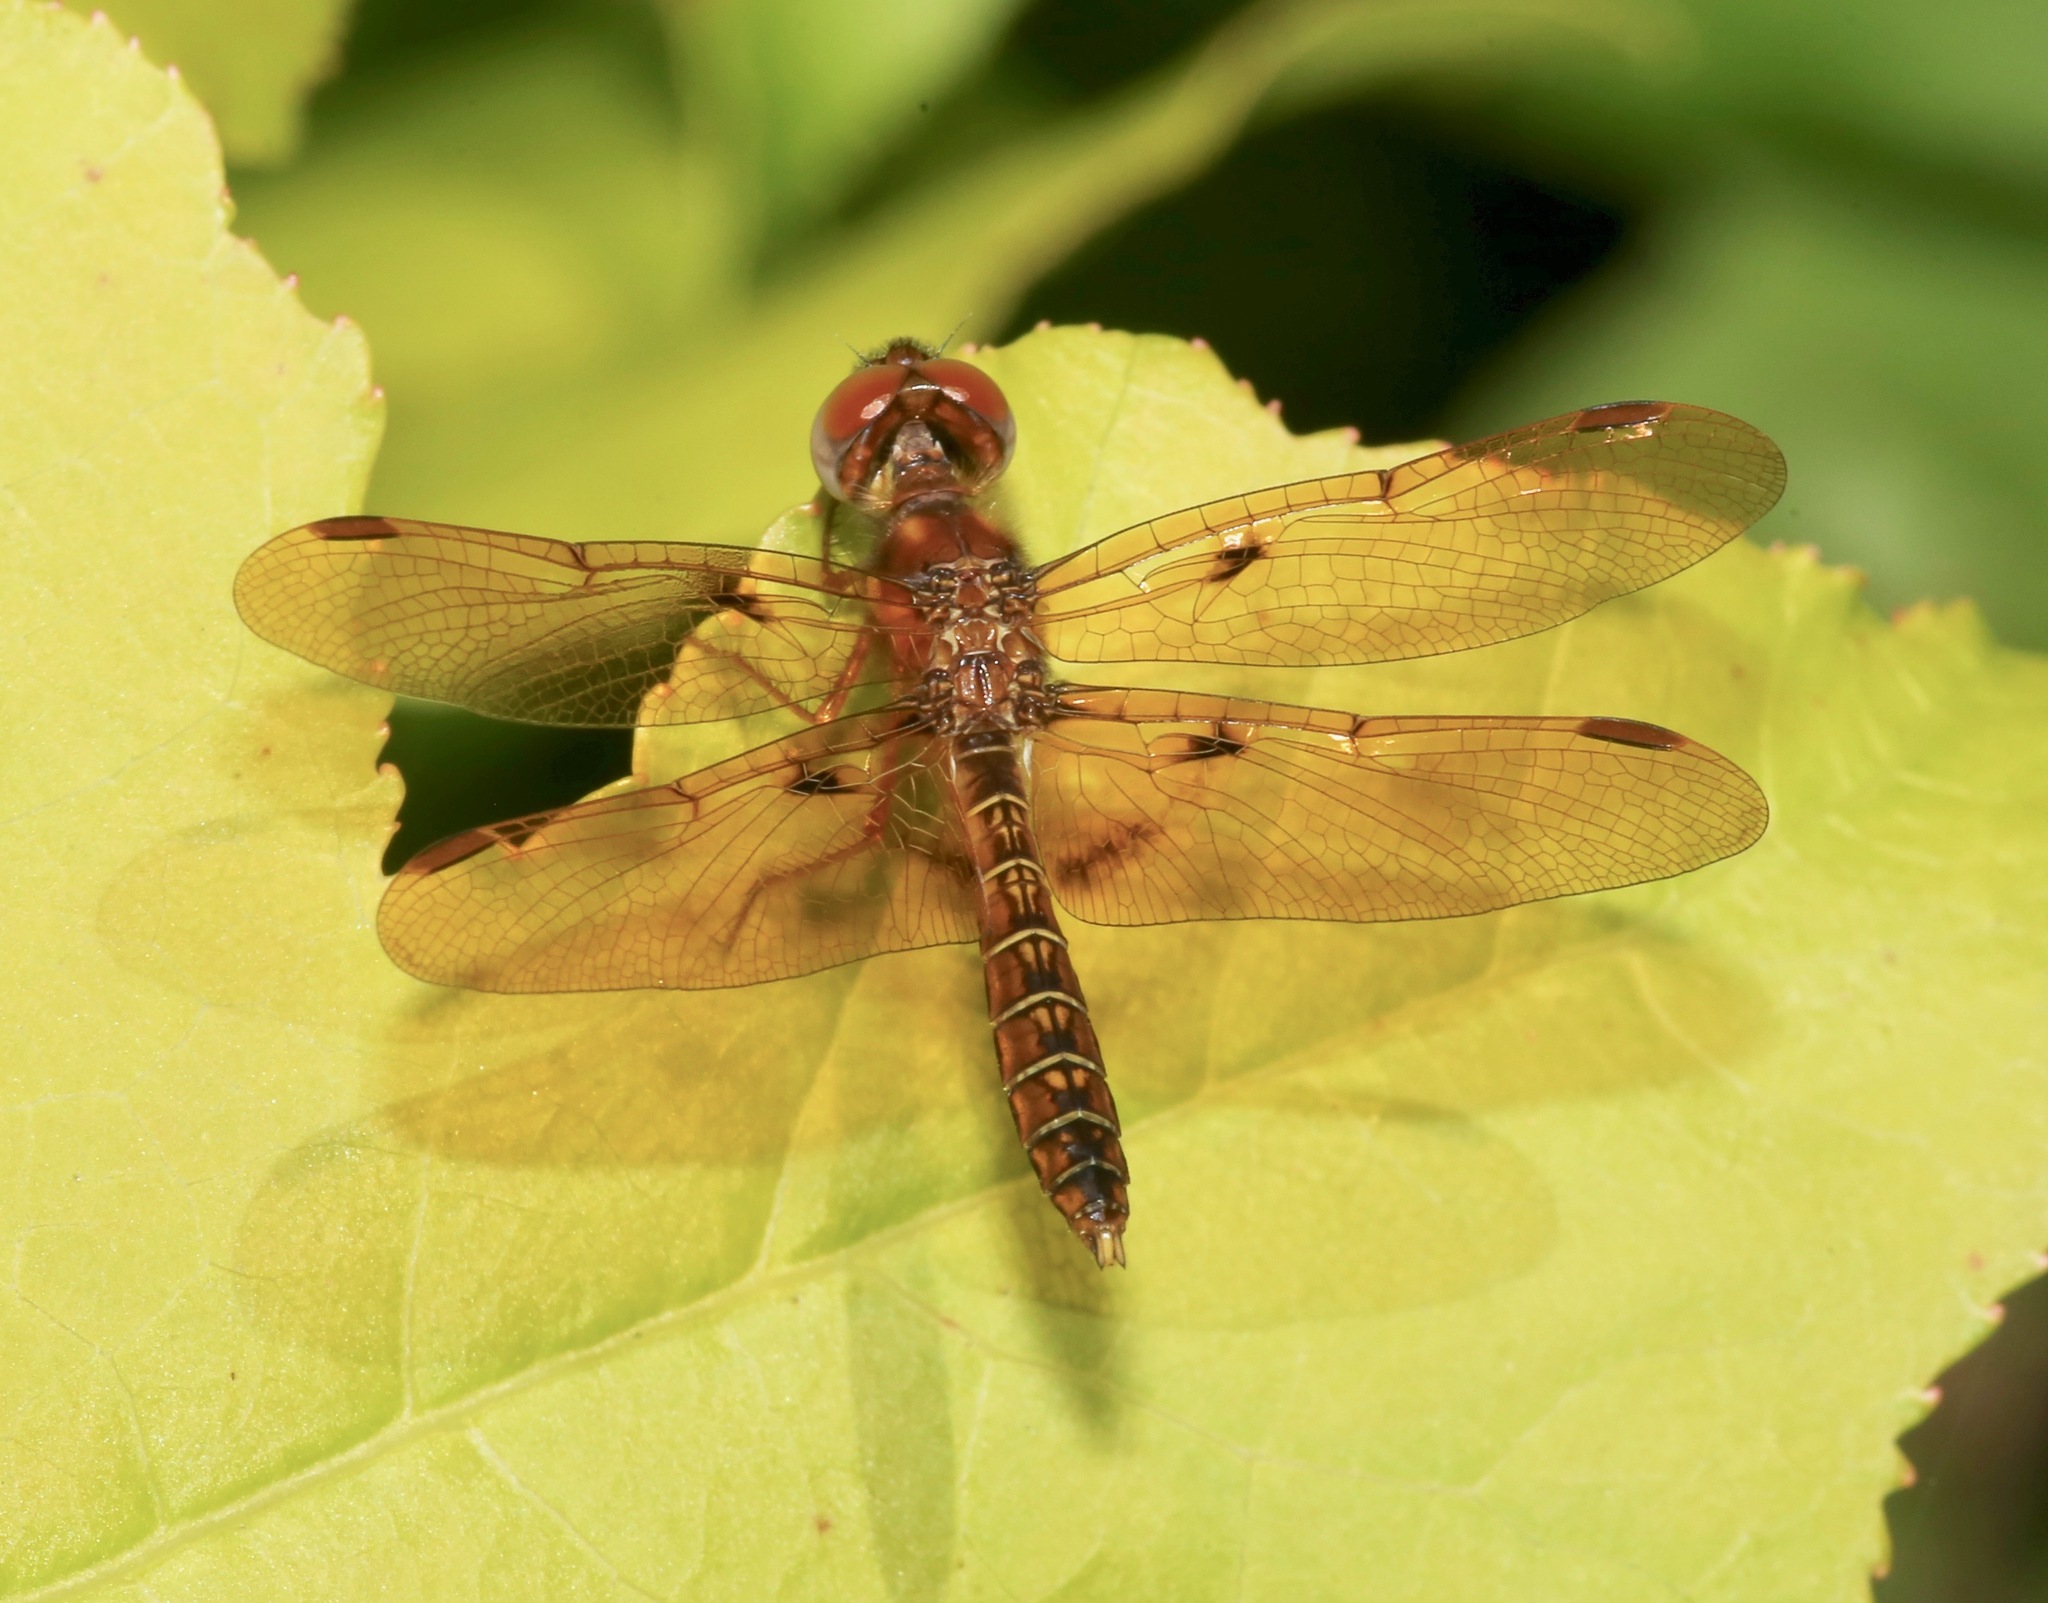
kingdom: Animalia
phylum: Arthropoda
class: Insecta
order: Odonata
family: Libellulidae
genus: Perithemis
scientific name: Perithemis tenera
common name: Eastern amberwing
